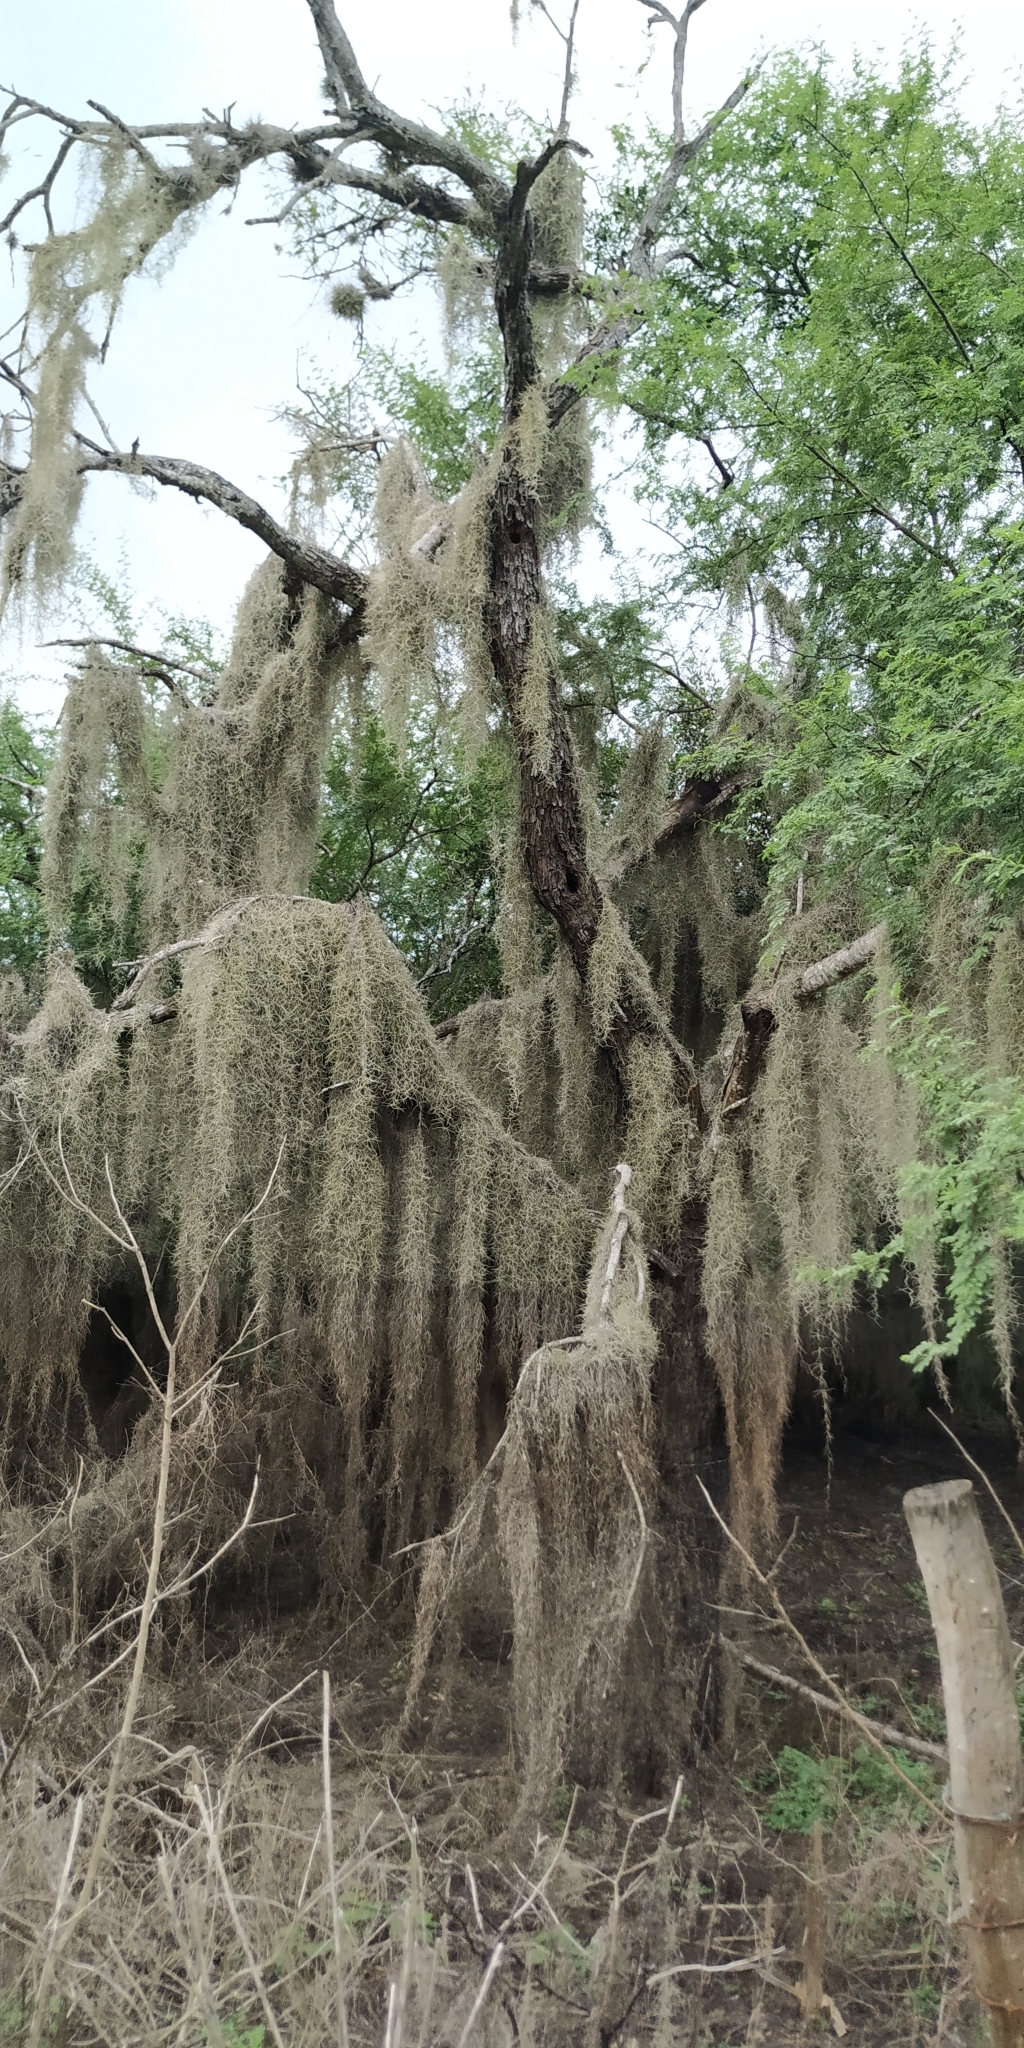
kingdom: Plantae
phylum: Tracheophyta
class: Liliopsida
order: Poales
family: Bromeliaceae
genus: Tillandsia
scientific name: Tillandsia usneoides
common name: Spanish moss
